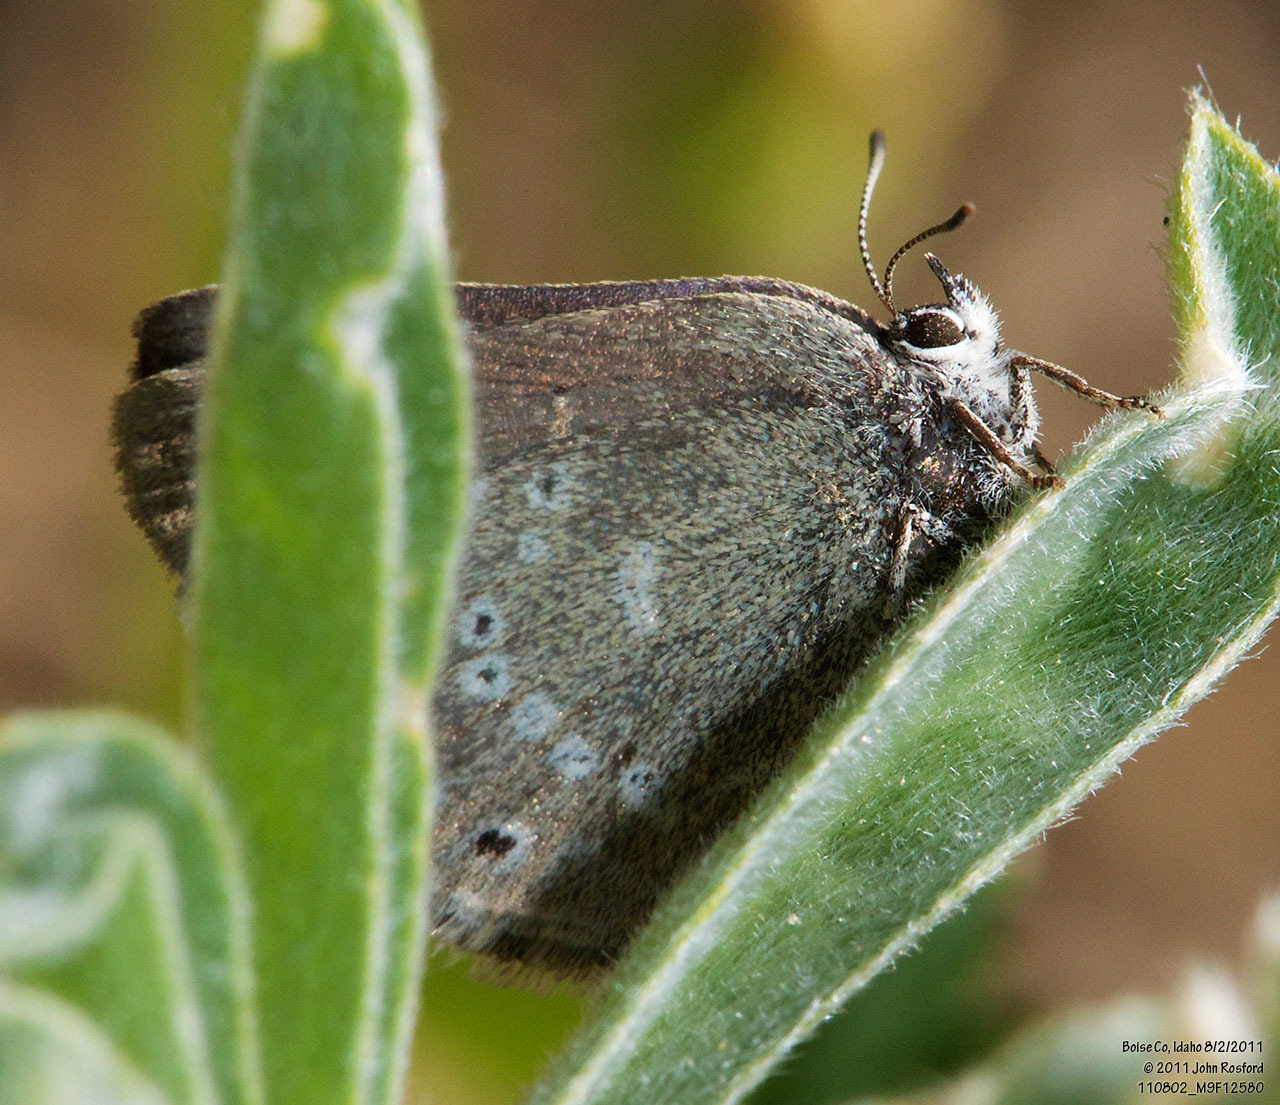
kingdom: Animalia
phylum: Arthropoda
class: Insecta
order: Lepidoptera
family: Lycaenidae
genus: Satyrium
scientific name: Satyrium fuliginosa
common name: Western sooty hairstreak
